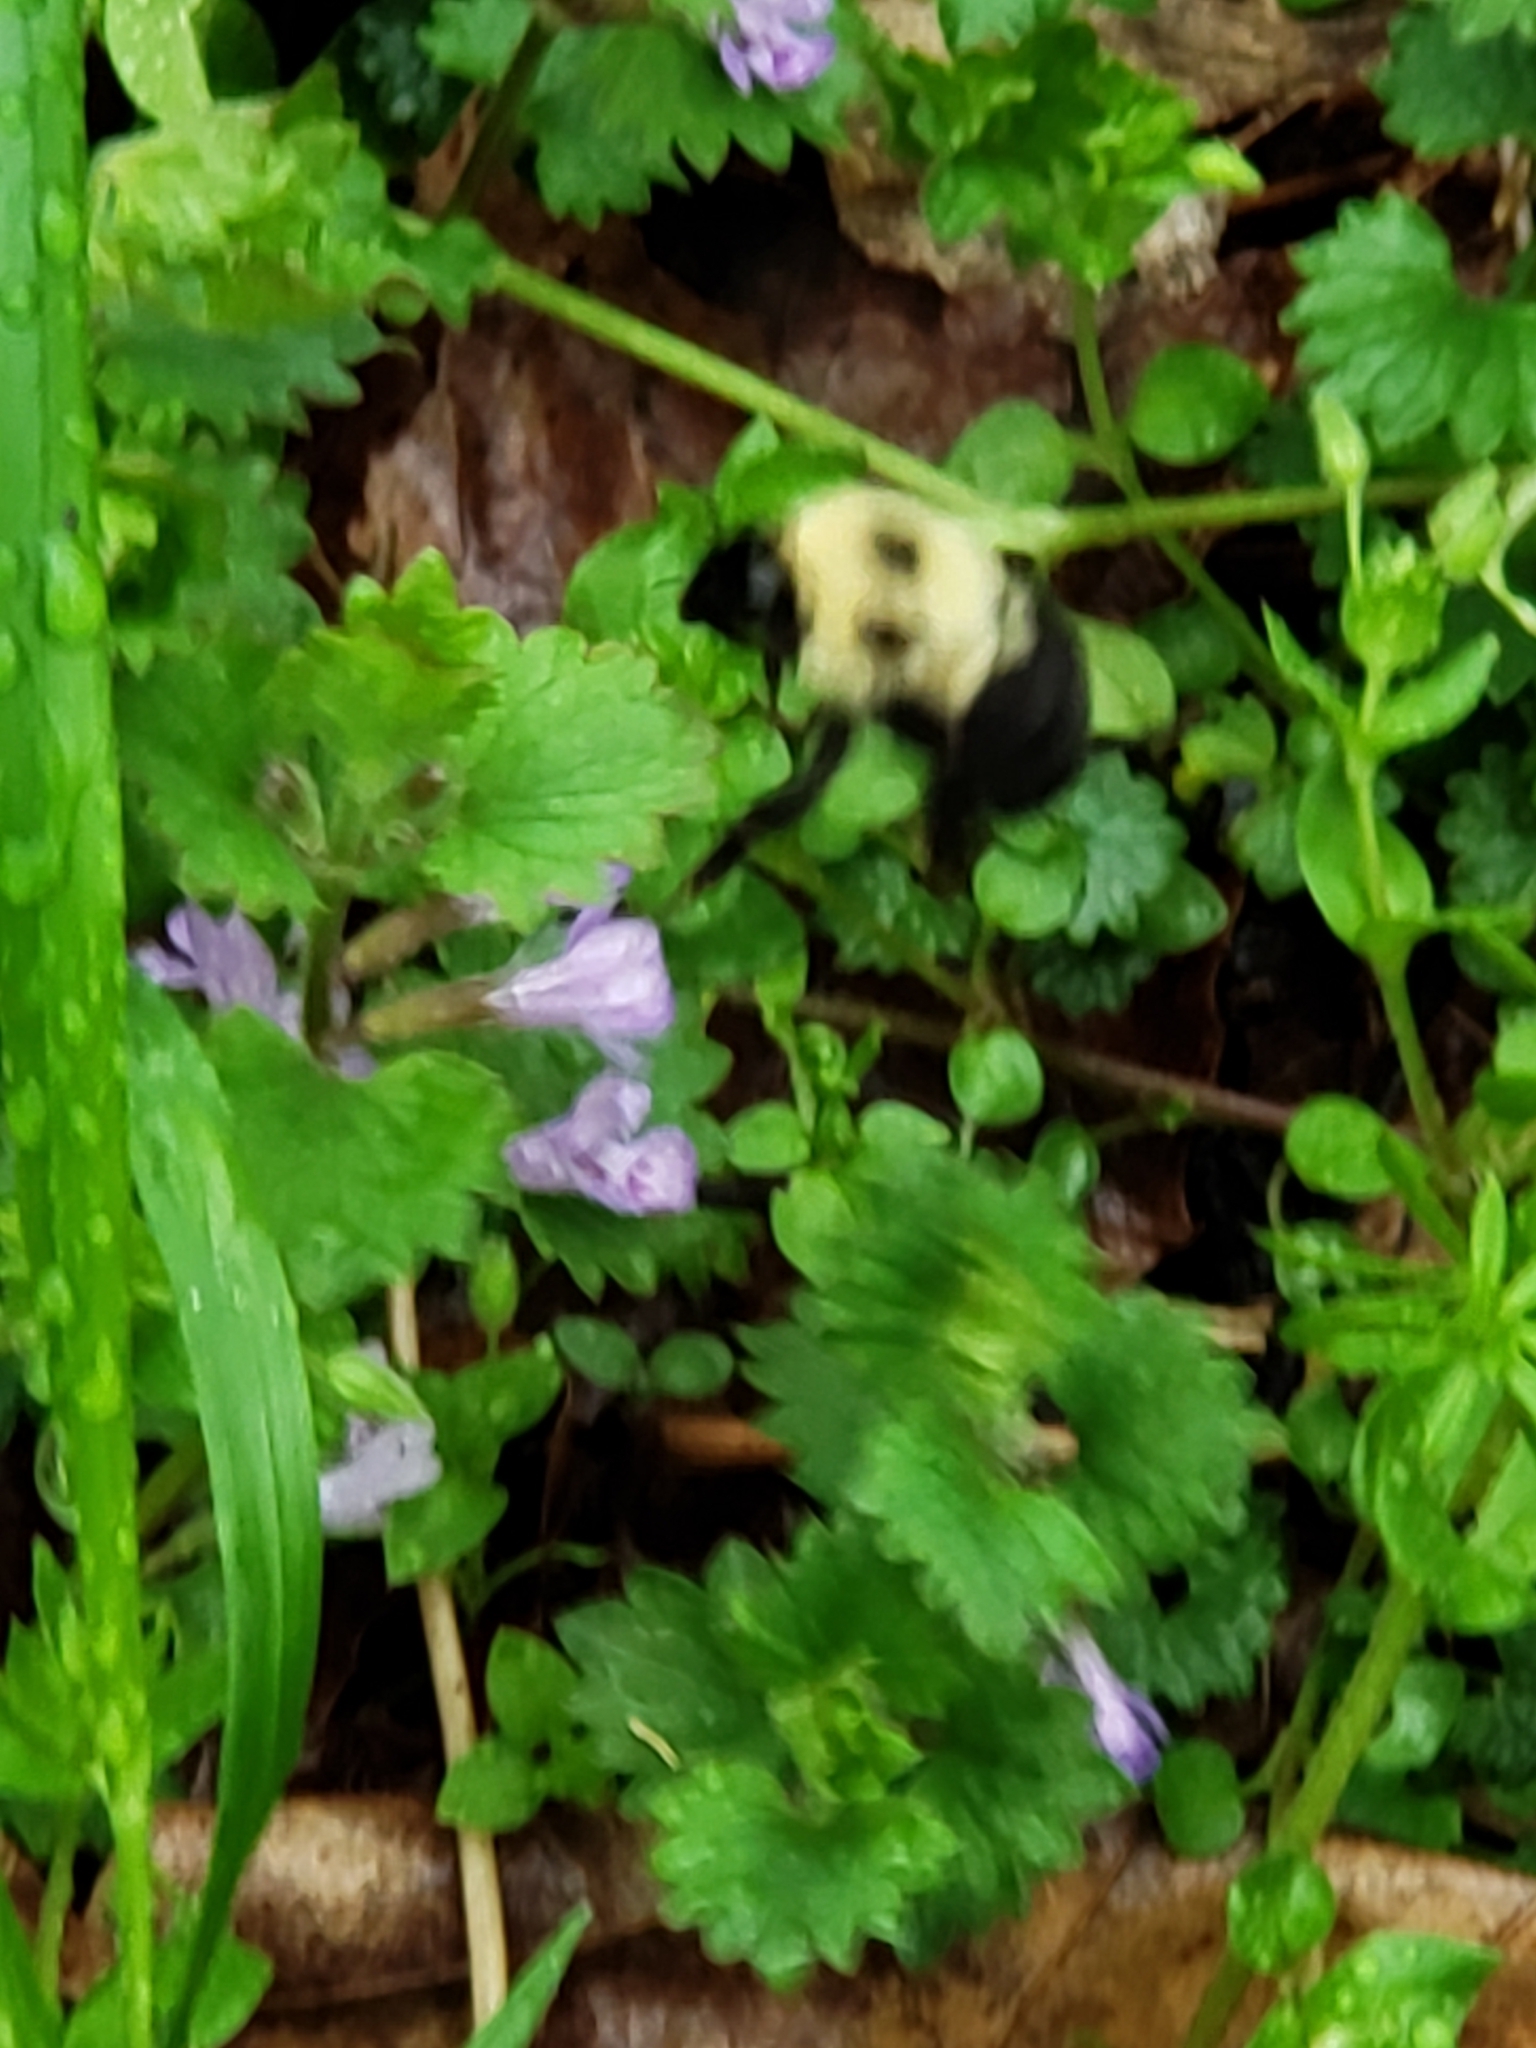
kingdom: Animalia
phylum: Arthropoda
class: Insecta
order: Hymenoptera
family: Apidae
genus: Bombus
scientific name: Bombus bimaculatus
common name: Two-spotted bumble bee
